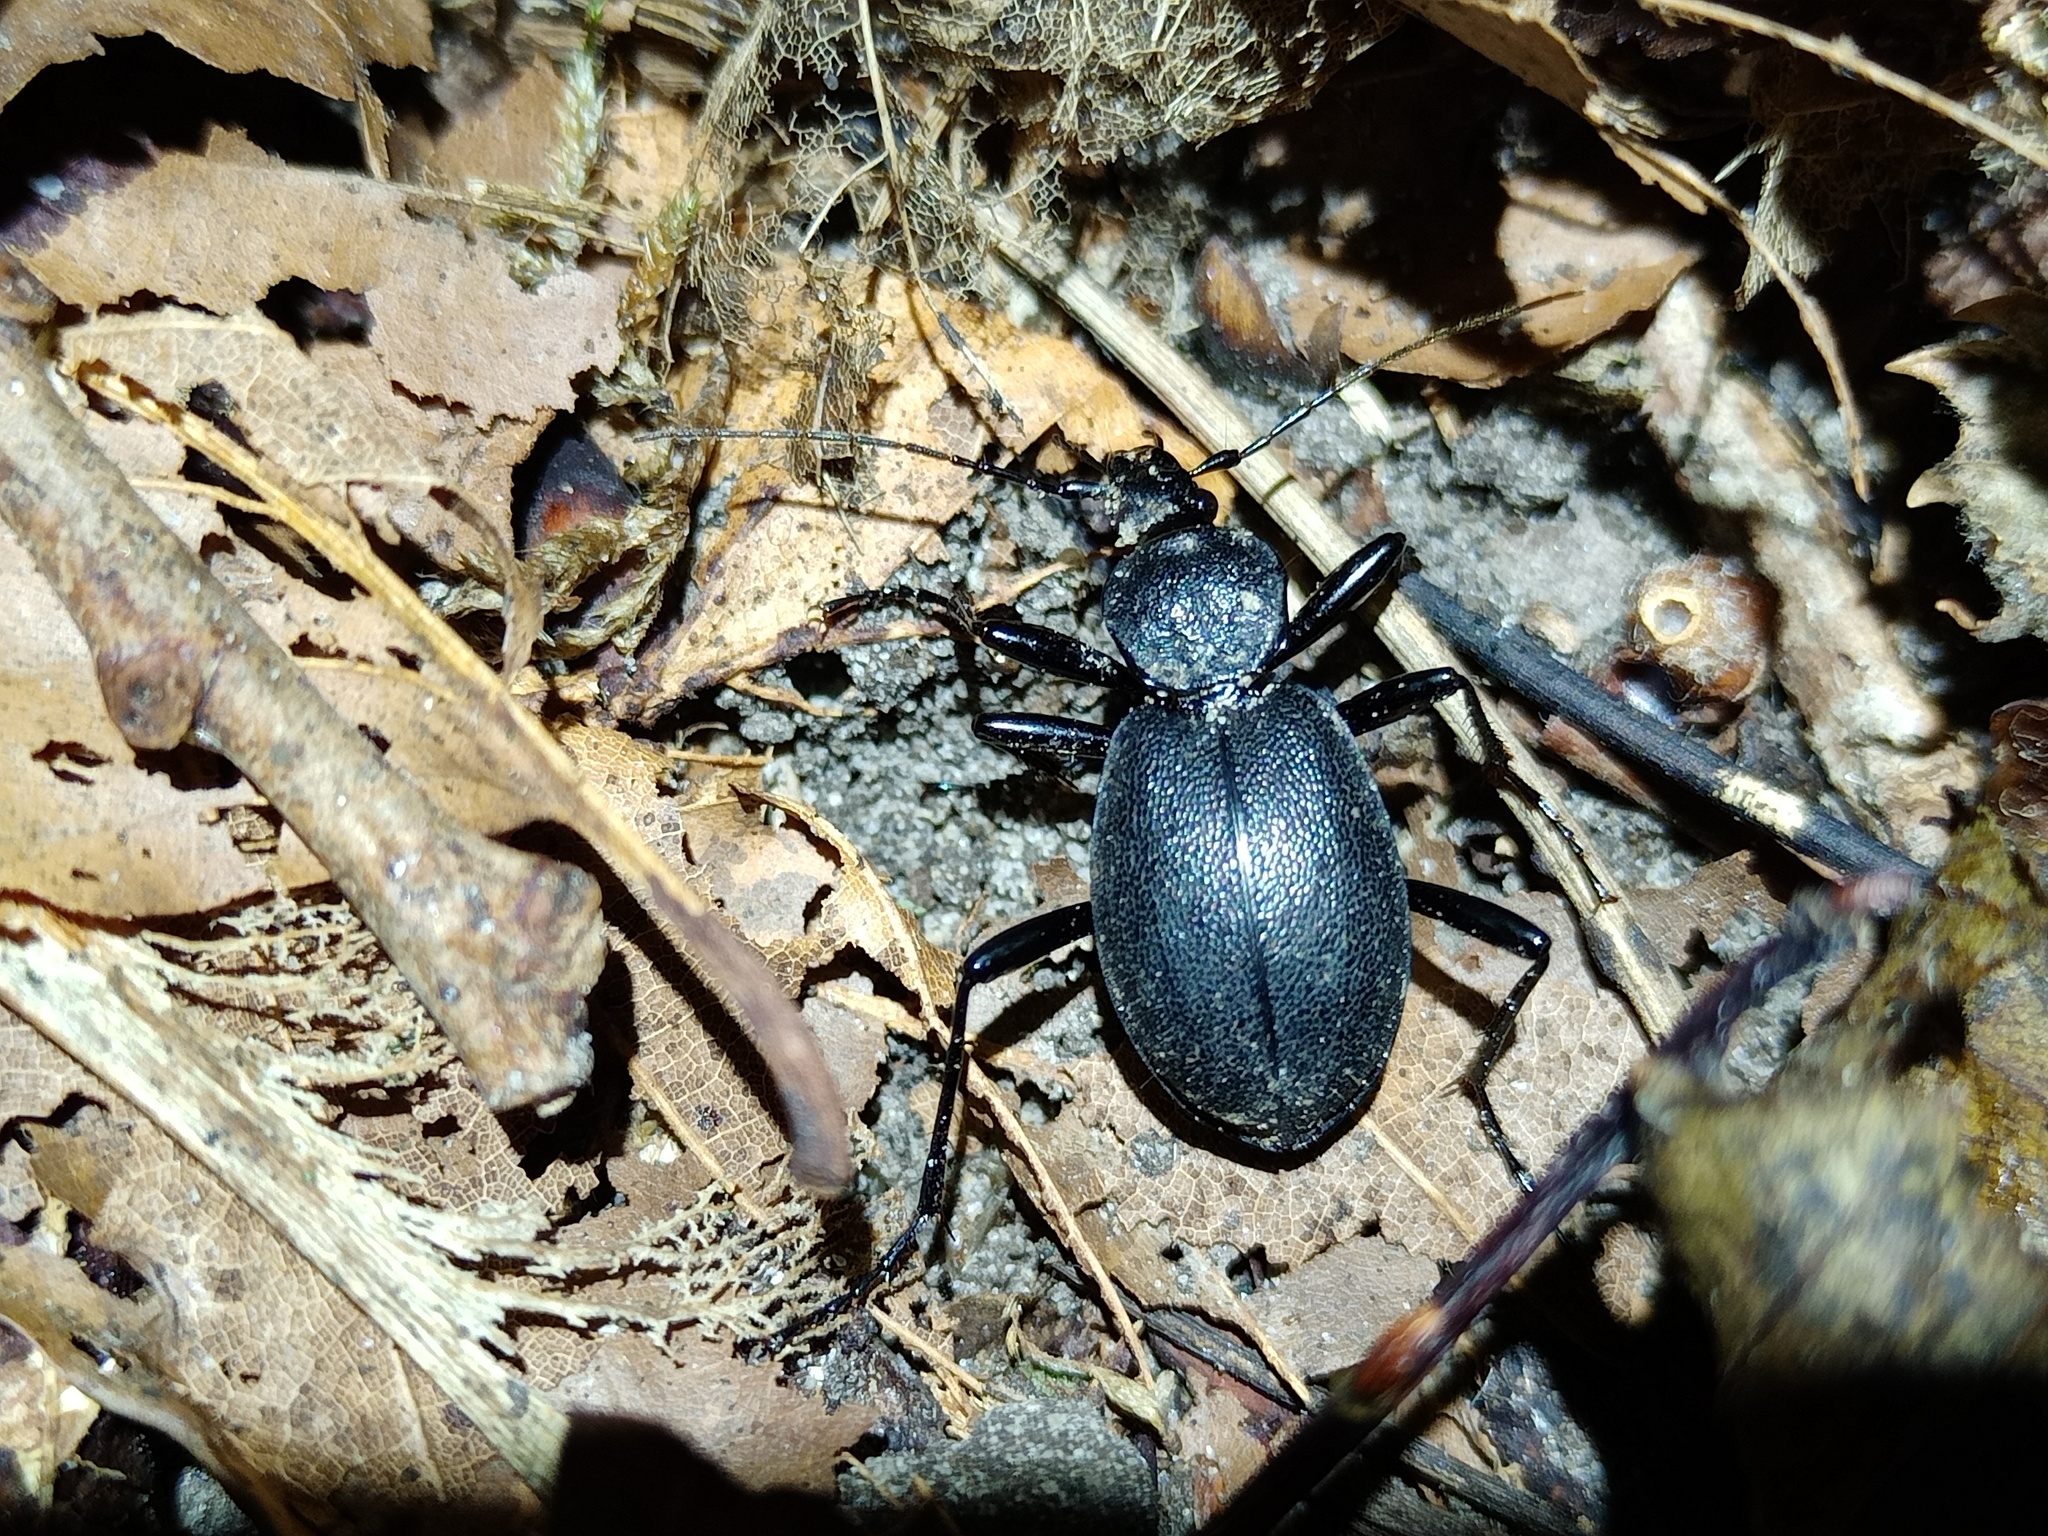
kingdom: Animalia
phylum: Arthropoda
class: Insecta
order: Coleoptera
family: Carabidae
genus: Cychrus
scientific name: Cychrus caraboides
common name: Snail hunter
